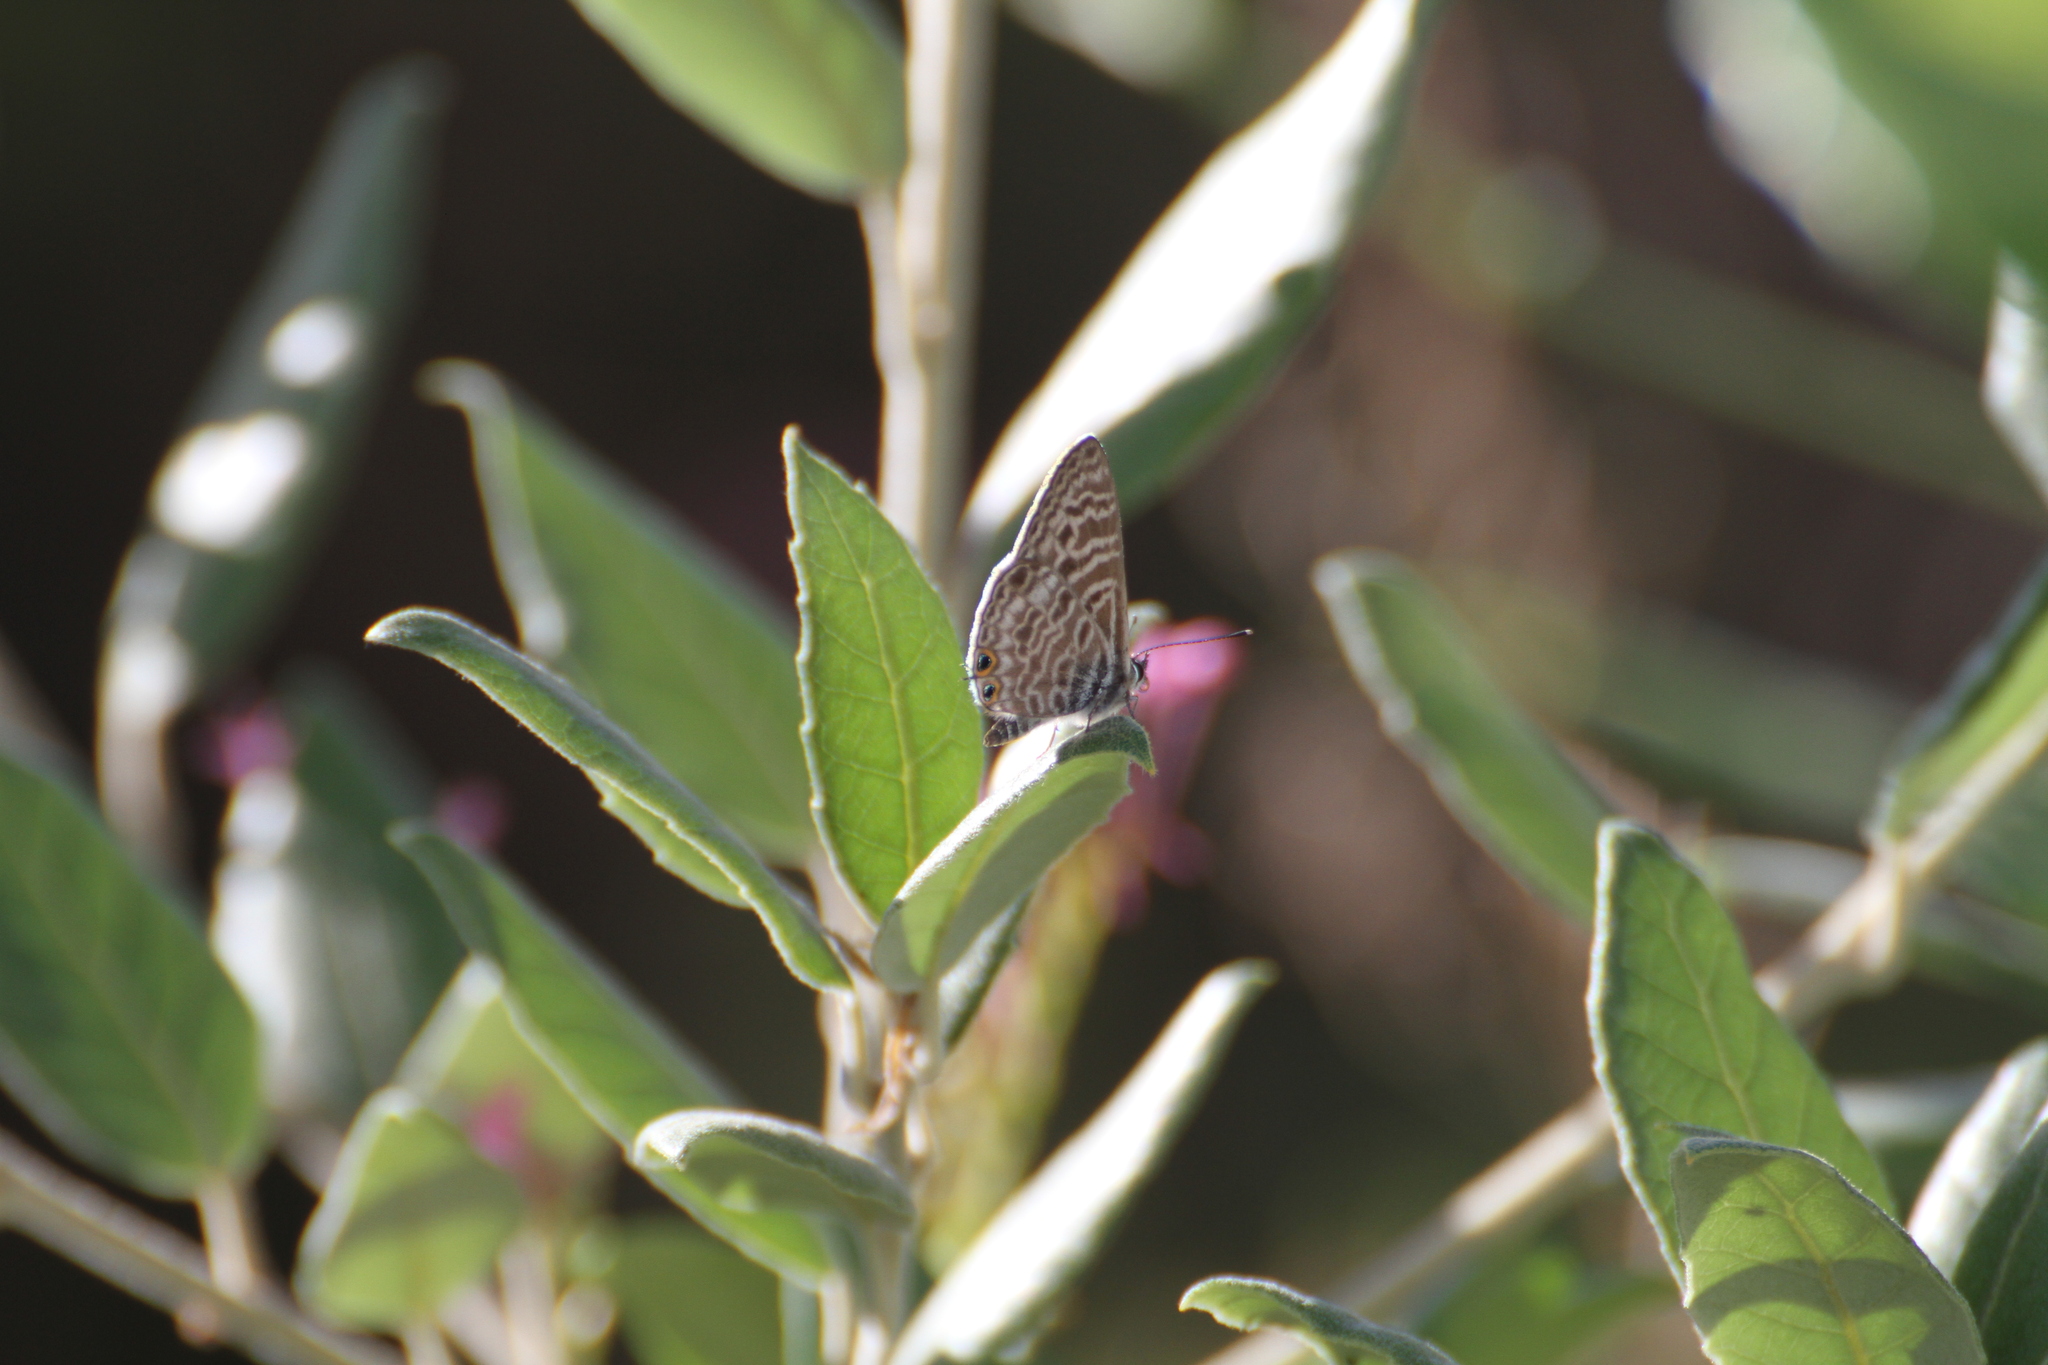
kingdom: Animalia
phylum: Arthropoda
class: Insecta
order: Lepidoptera
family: Lycaenidae
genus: Leptotes
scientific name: Leptotes pirithous
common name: Lang's short-tailed blue
